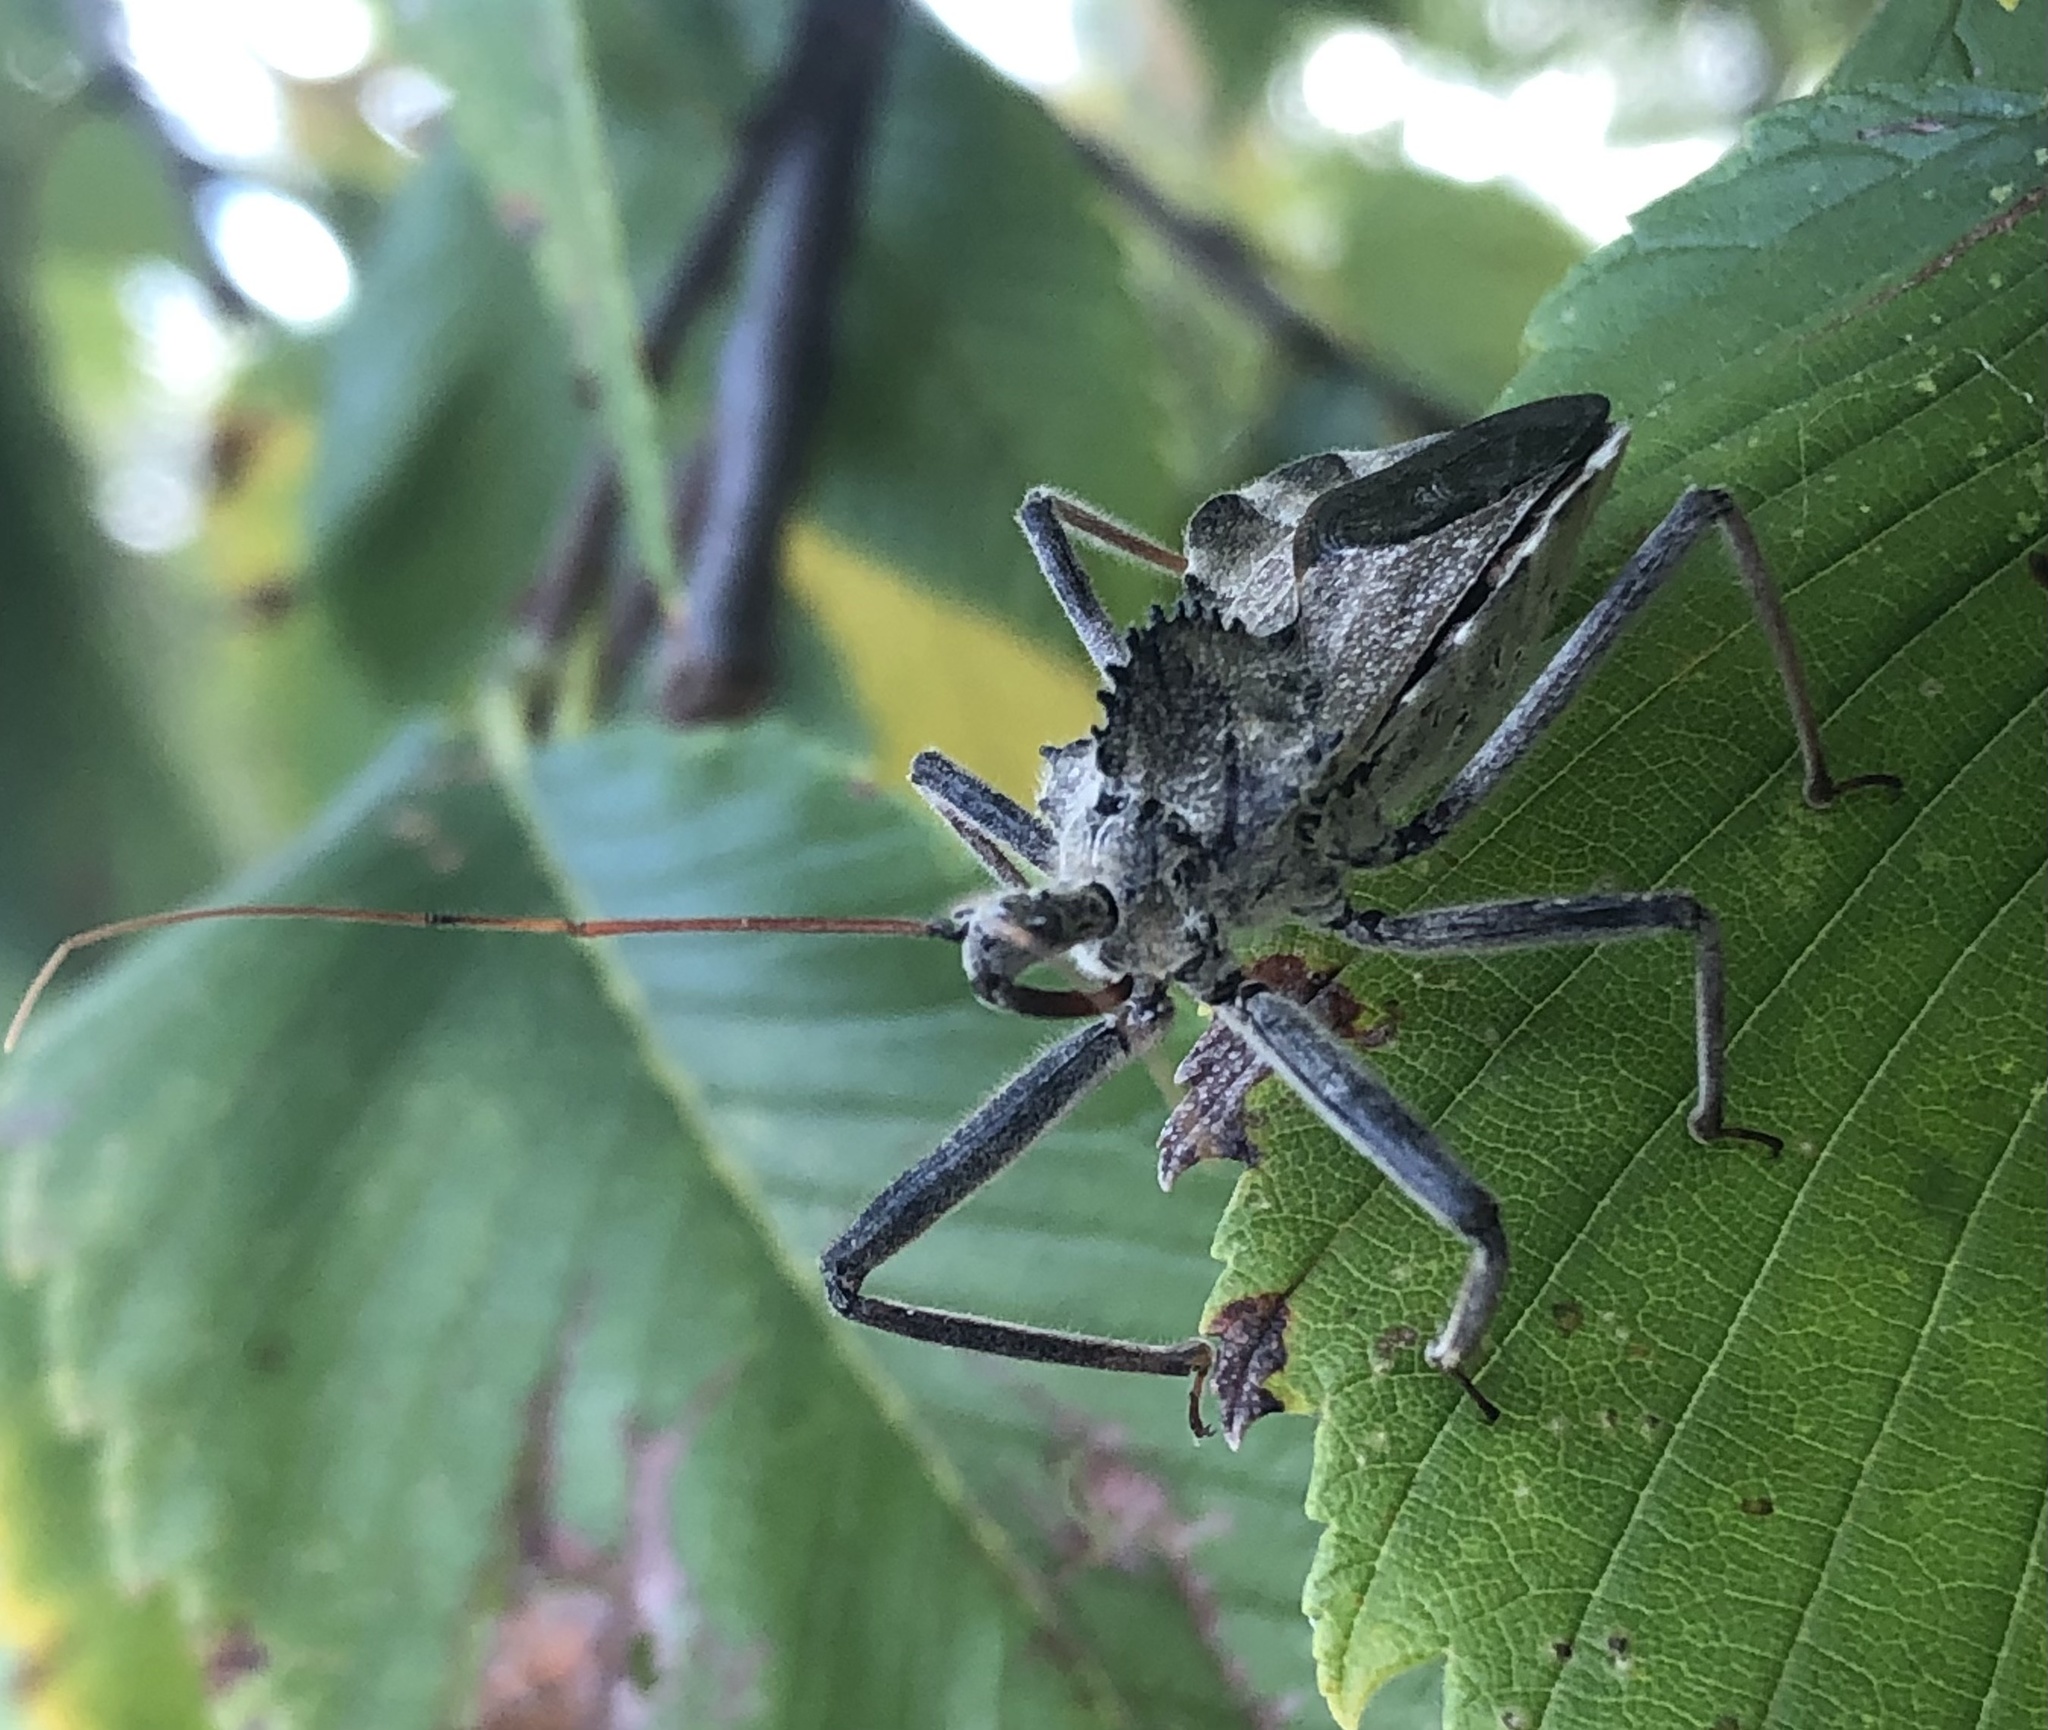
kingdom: Animalia
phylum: Arthropoda
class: Insecta
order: Hemiptera
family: Reduviidae
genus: Arilus
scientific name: Arilus cristatus
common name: North american wheel bug
